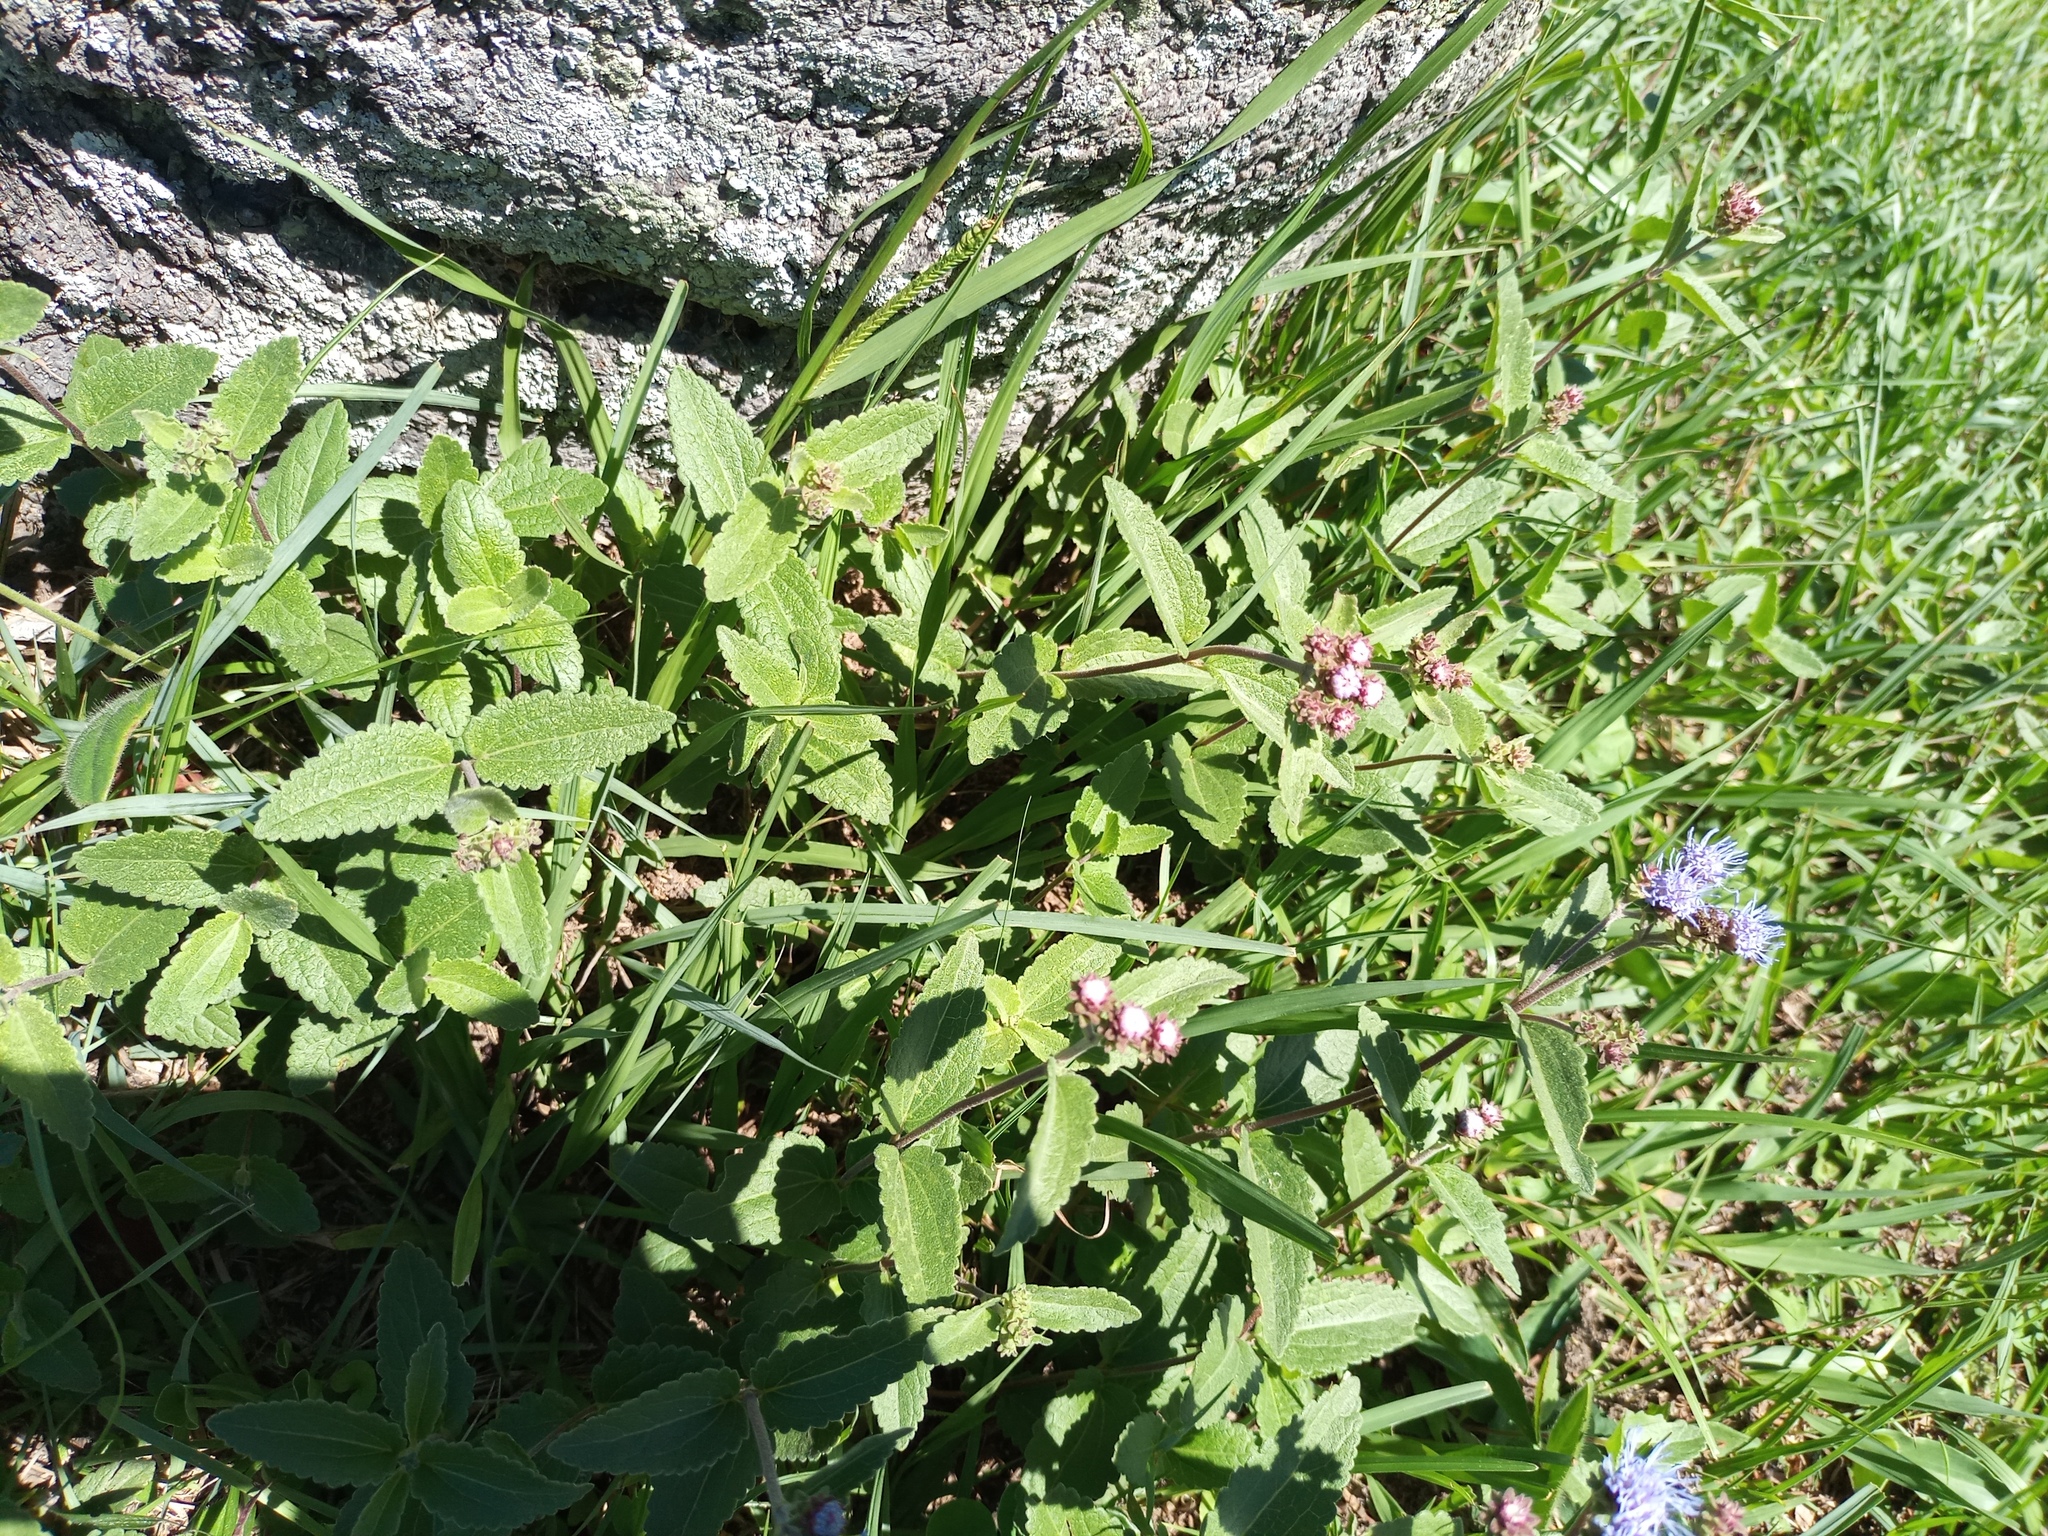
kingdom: Plantae
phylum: Tracheophyta
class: Magnoliopsida
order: Asterales
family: Asteraceae
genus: Chromolaena
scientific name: Chromolaena squarrulosa
